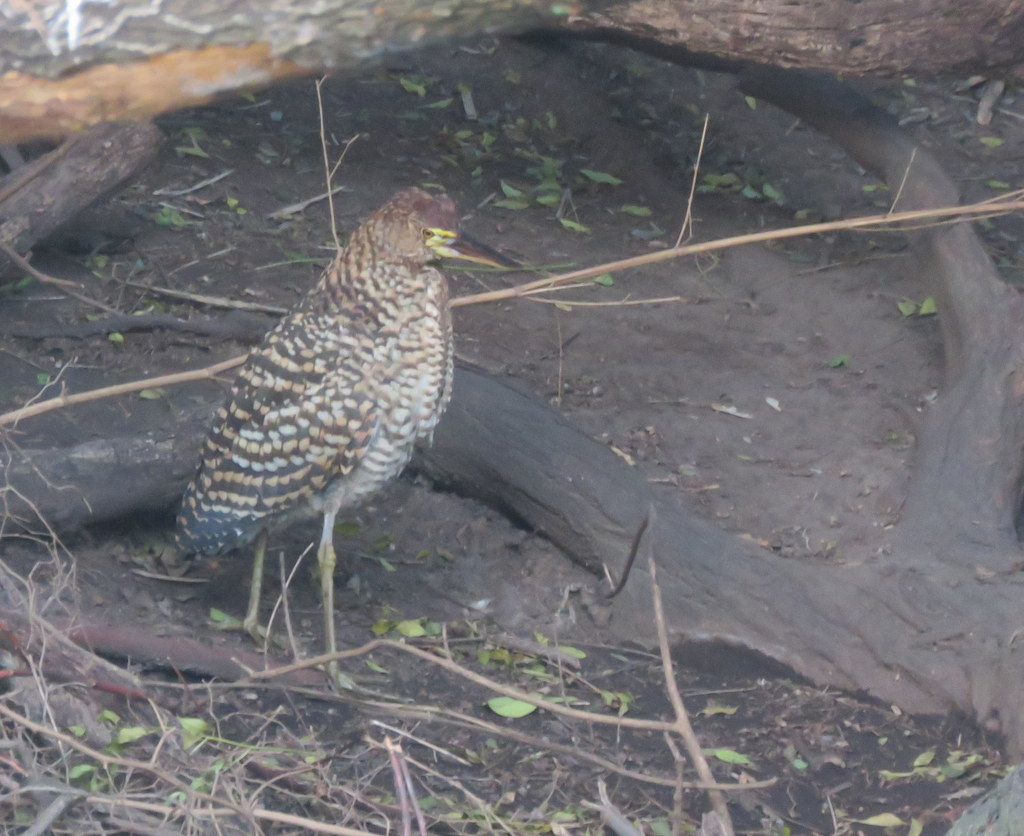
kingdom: Animalia
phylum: Chordata
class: Aves
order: Pelecaniformes
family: Ardeidae
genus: Tigrisoma
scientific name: Tigrisoma lineatum
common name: Rufescent tiger-heron
